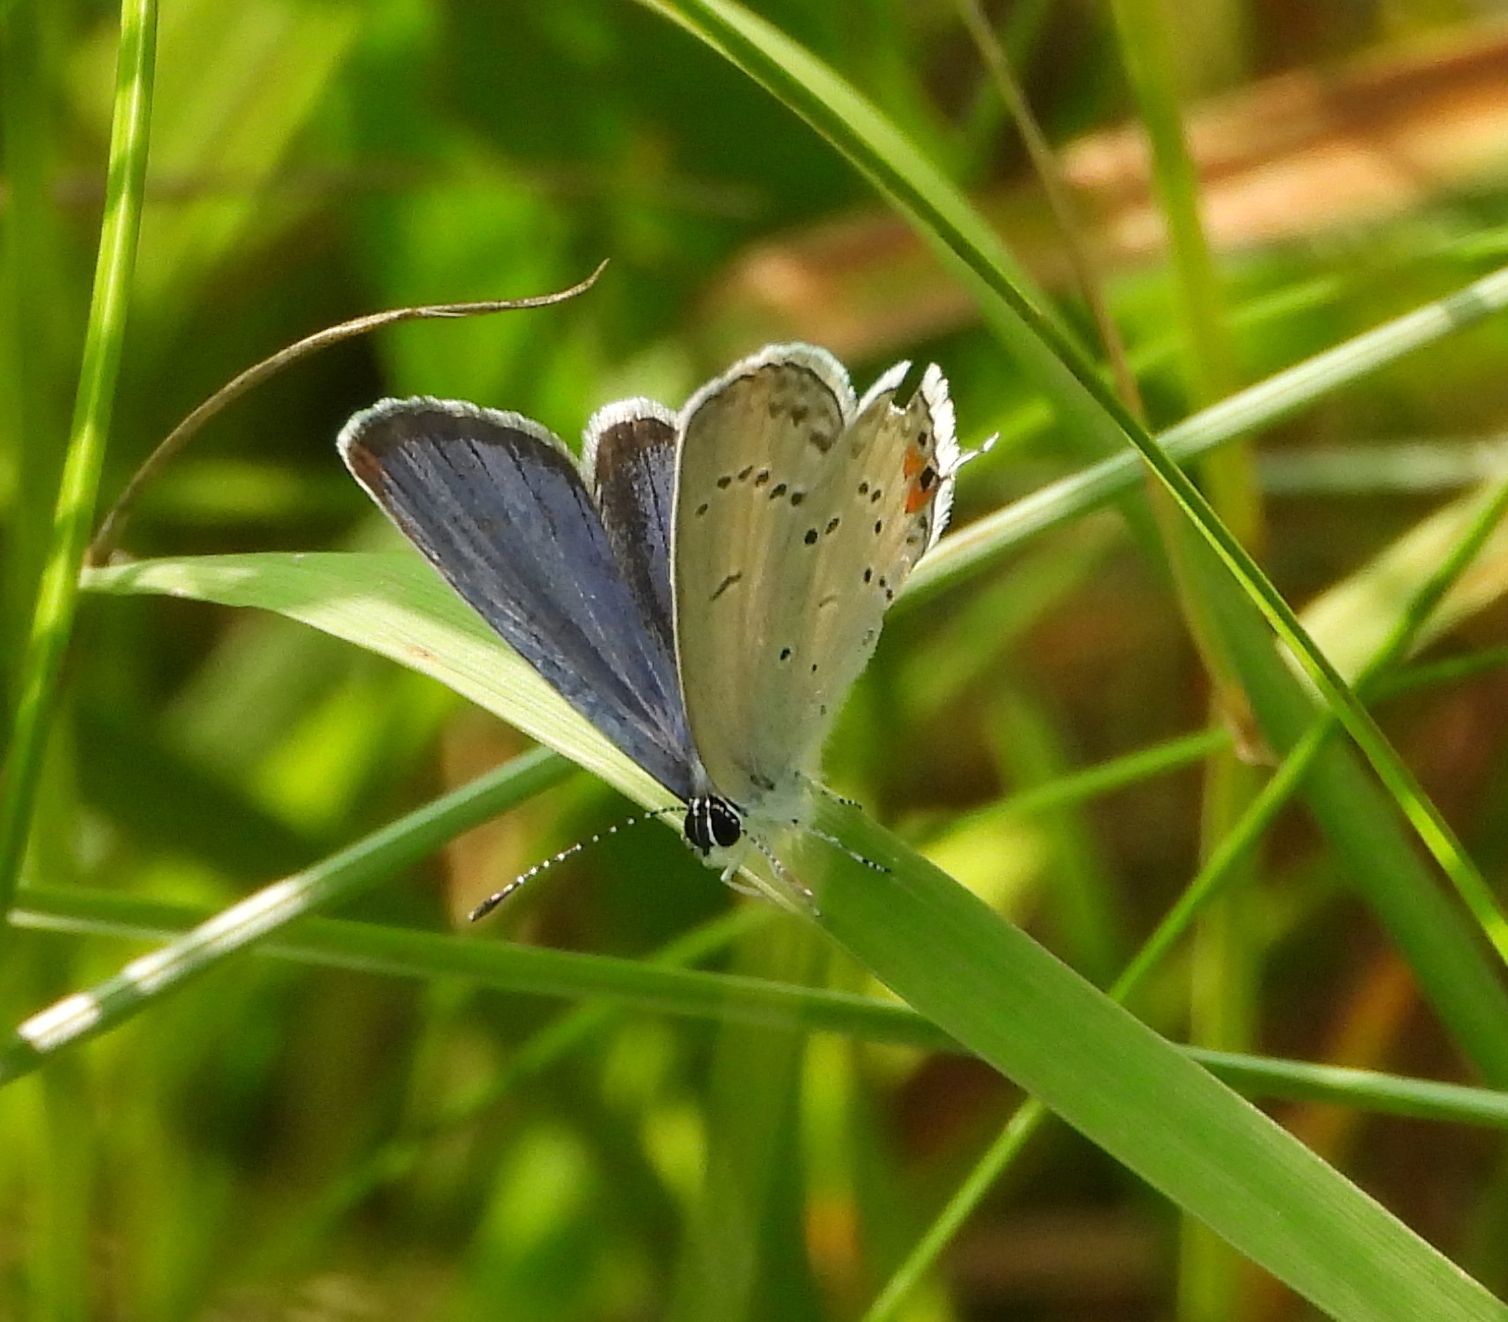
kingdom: Animalia
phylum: Arthropoda
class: Insecta
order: Lepidoptera
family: Lycaenidae
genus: Elkalyce
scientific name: Elkalyce comyntas
